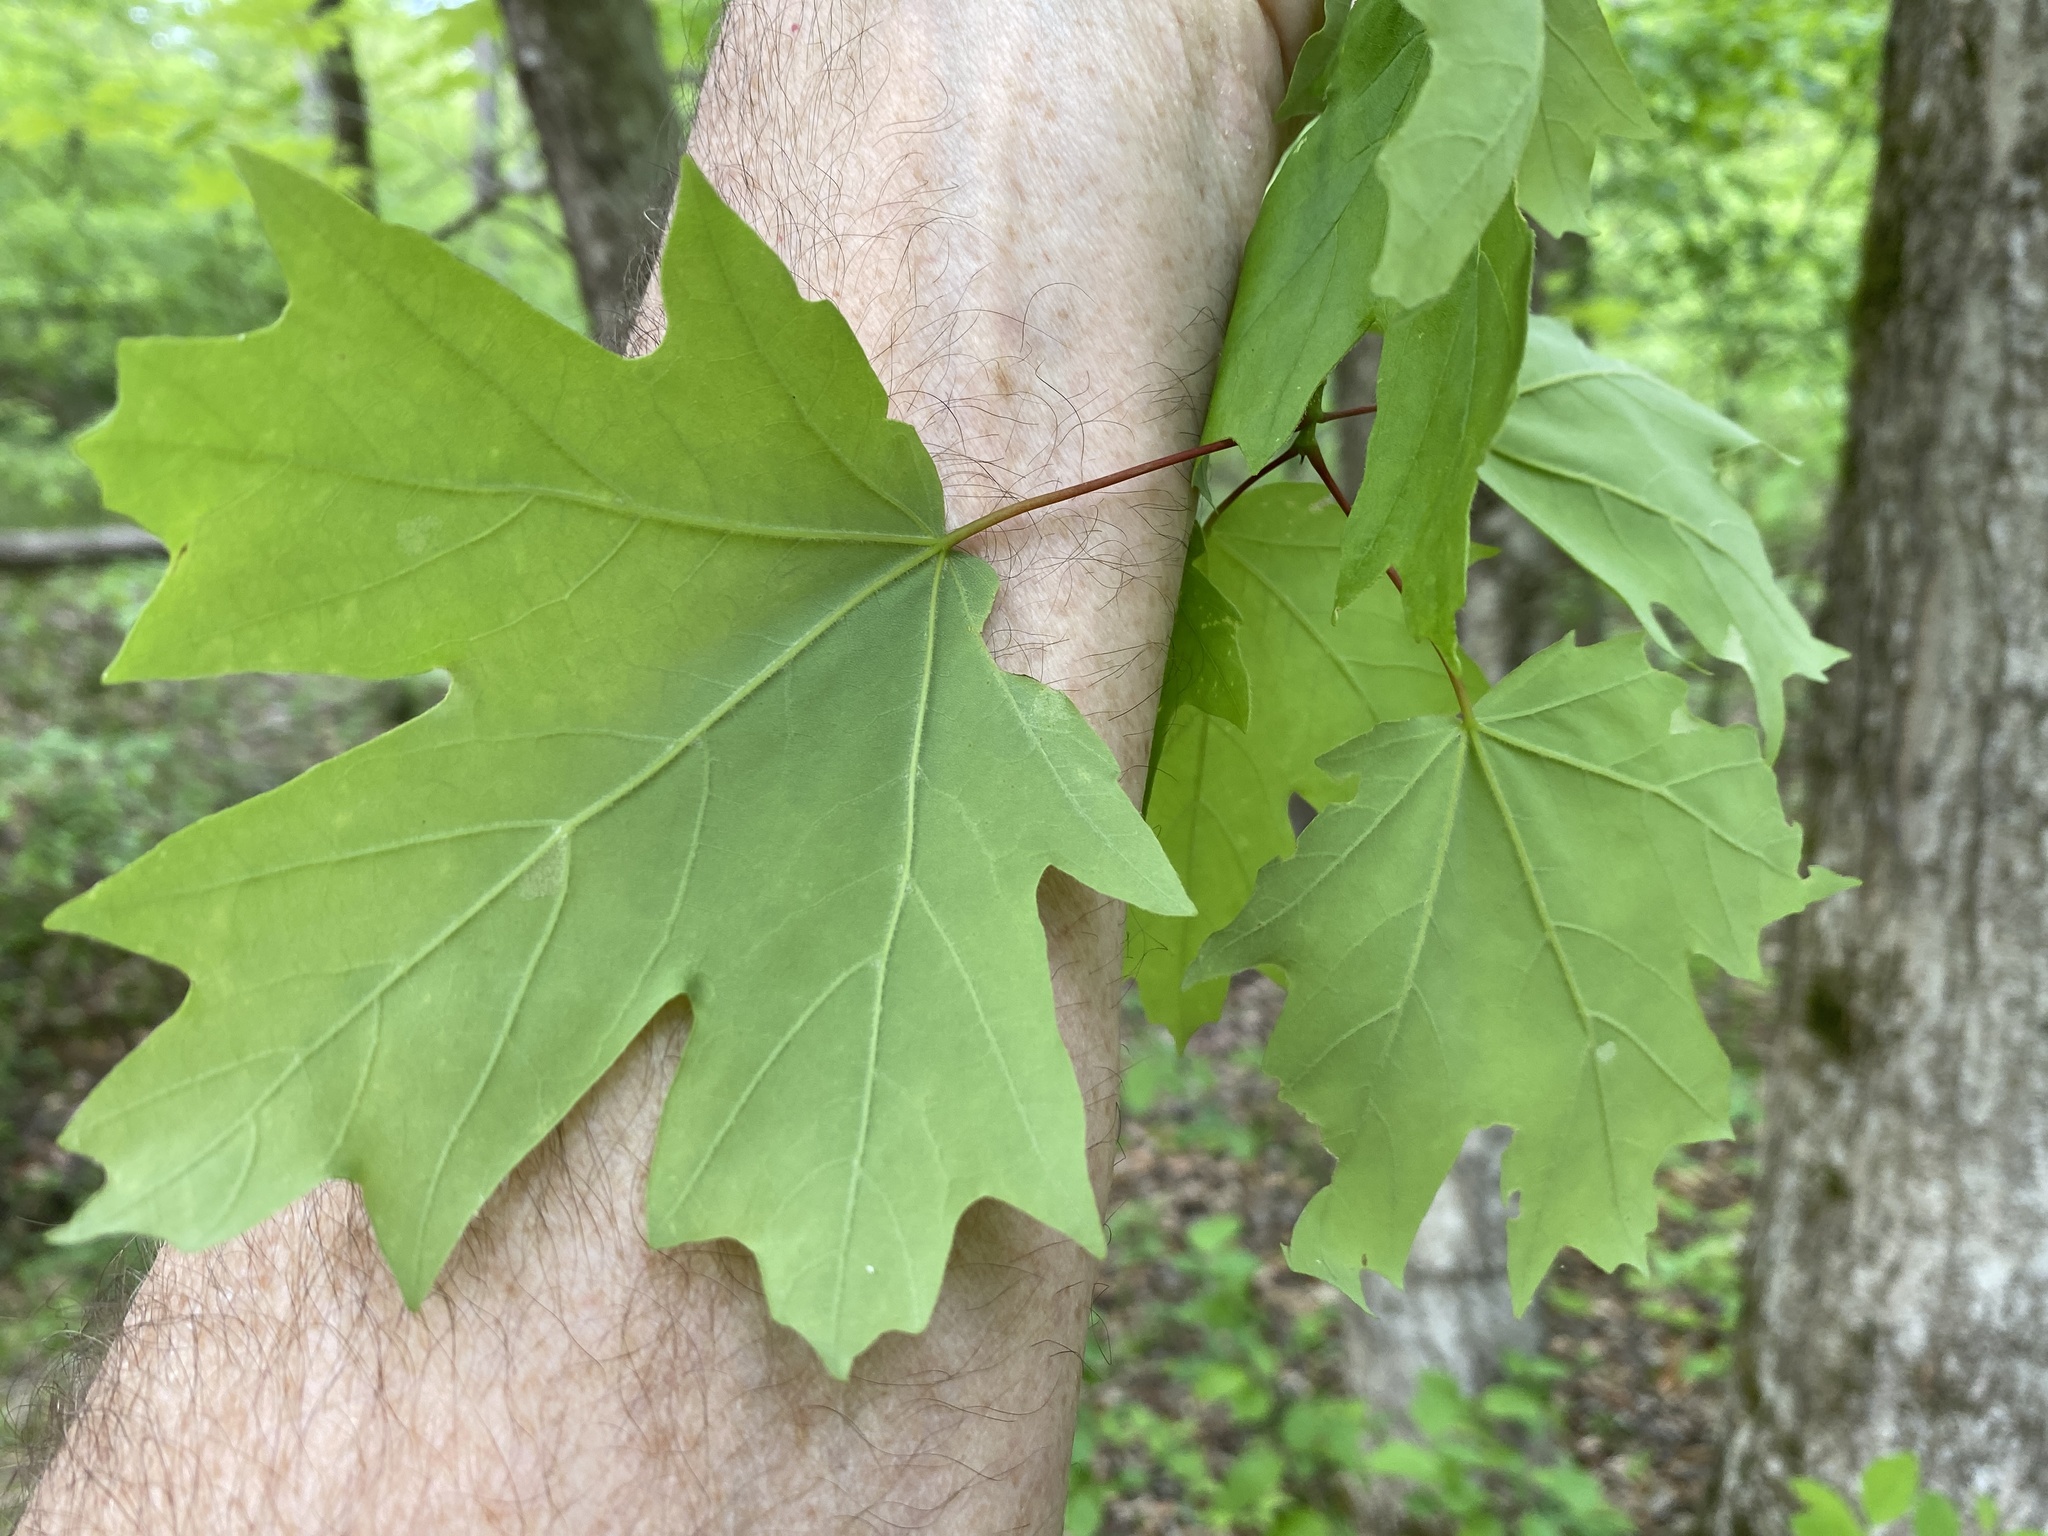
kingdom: Plantae
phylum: Tracheophyta
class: Magnoliopsida
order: Sapindales
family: Sapindaceae
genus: Acer
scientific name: Acer floridanum
